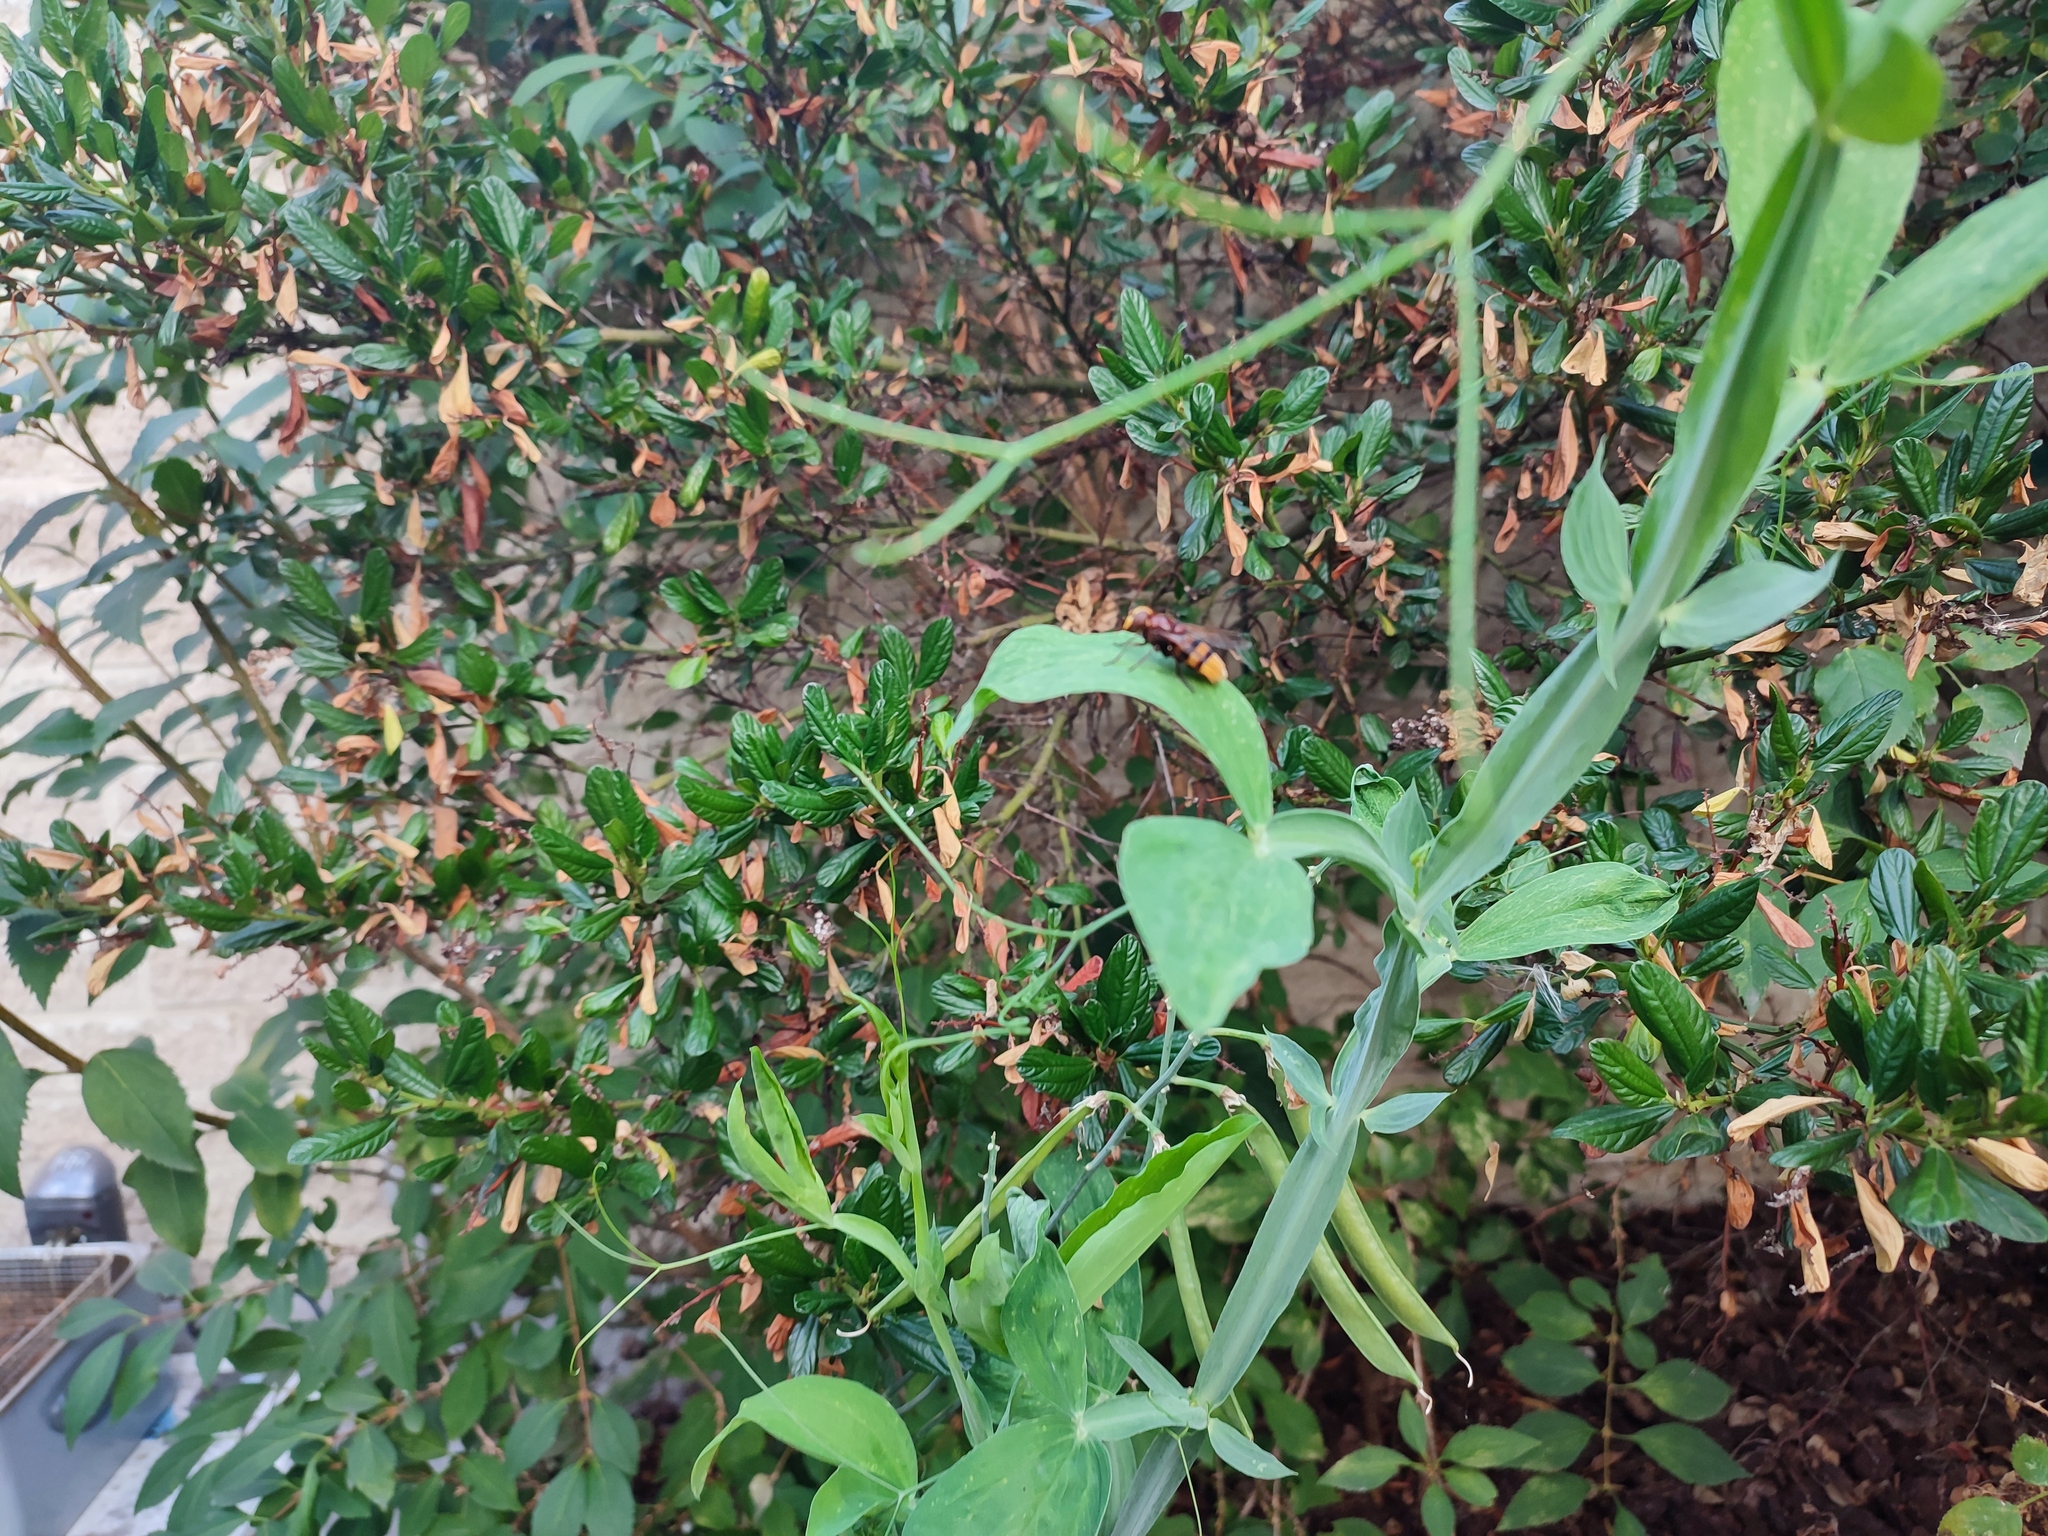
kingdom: Animalia
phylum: Arthropoda
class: Insecta
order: Diptera
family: Syrphidae
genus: Volucella
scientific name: Volucella zonaria
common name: Hornet hoverfly
